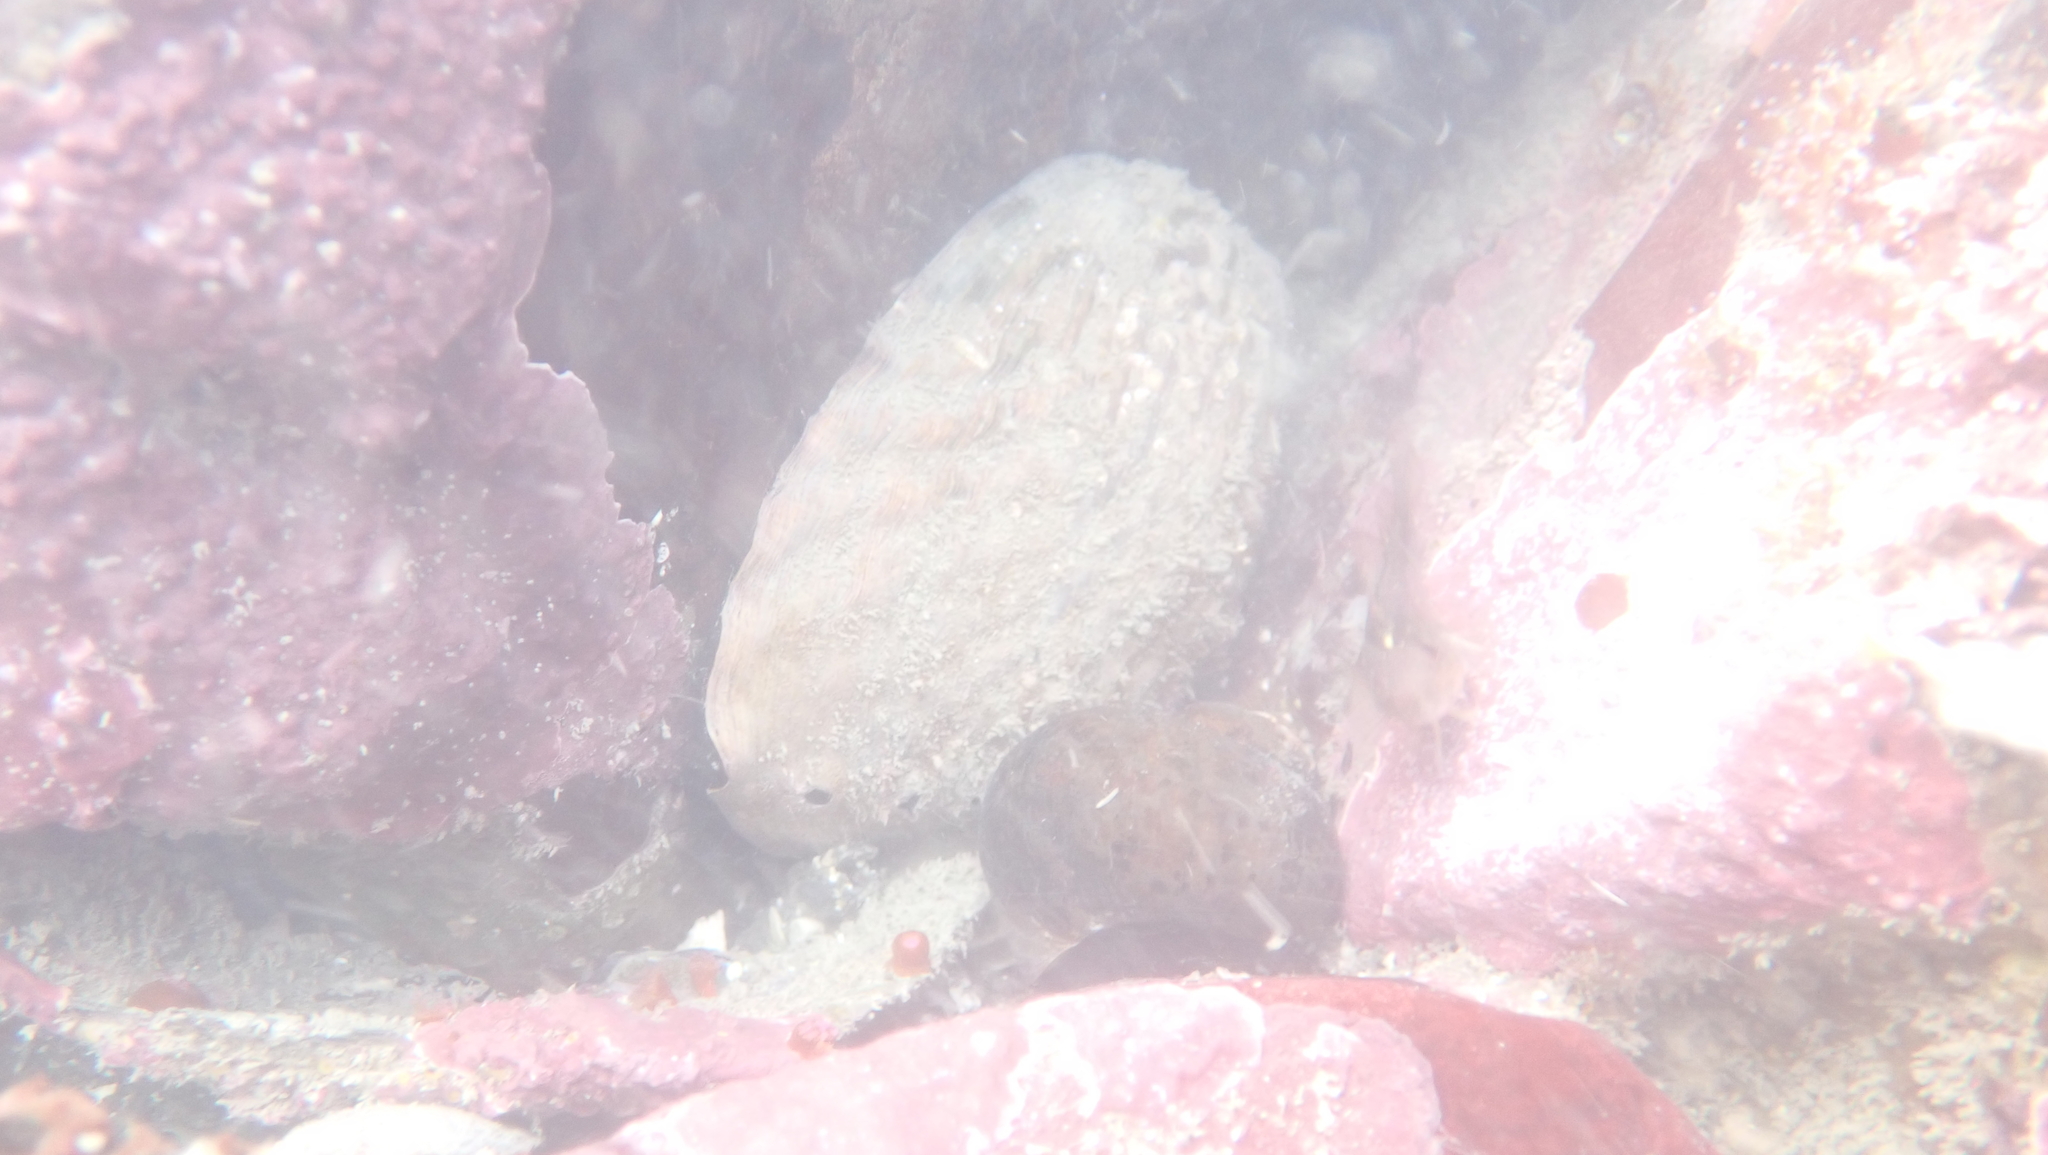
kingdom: Animalia
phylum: Mollusca
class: Gastropoda
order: Lepetellida
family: Haliotidae
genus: Haliotis
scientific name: Haliotis iris
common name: Abalone
